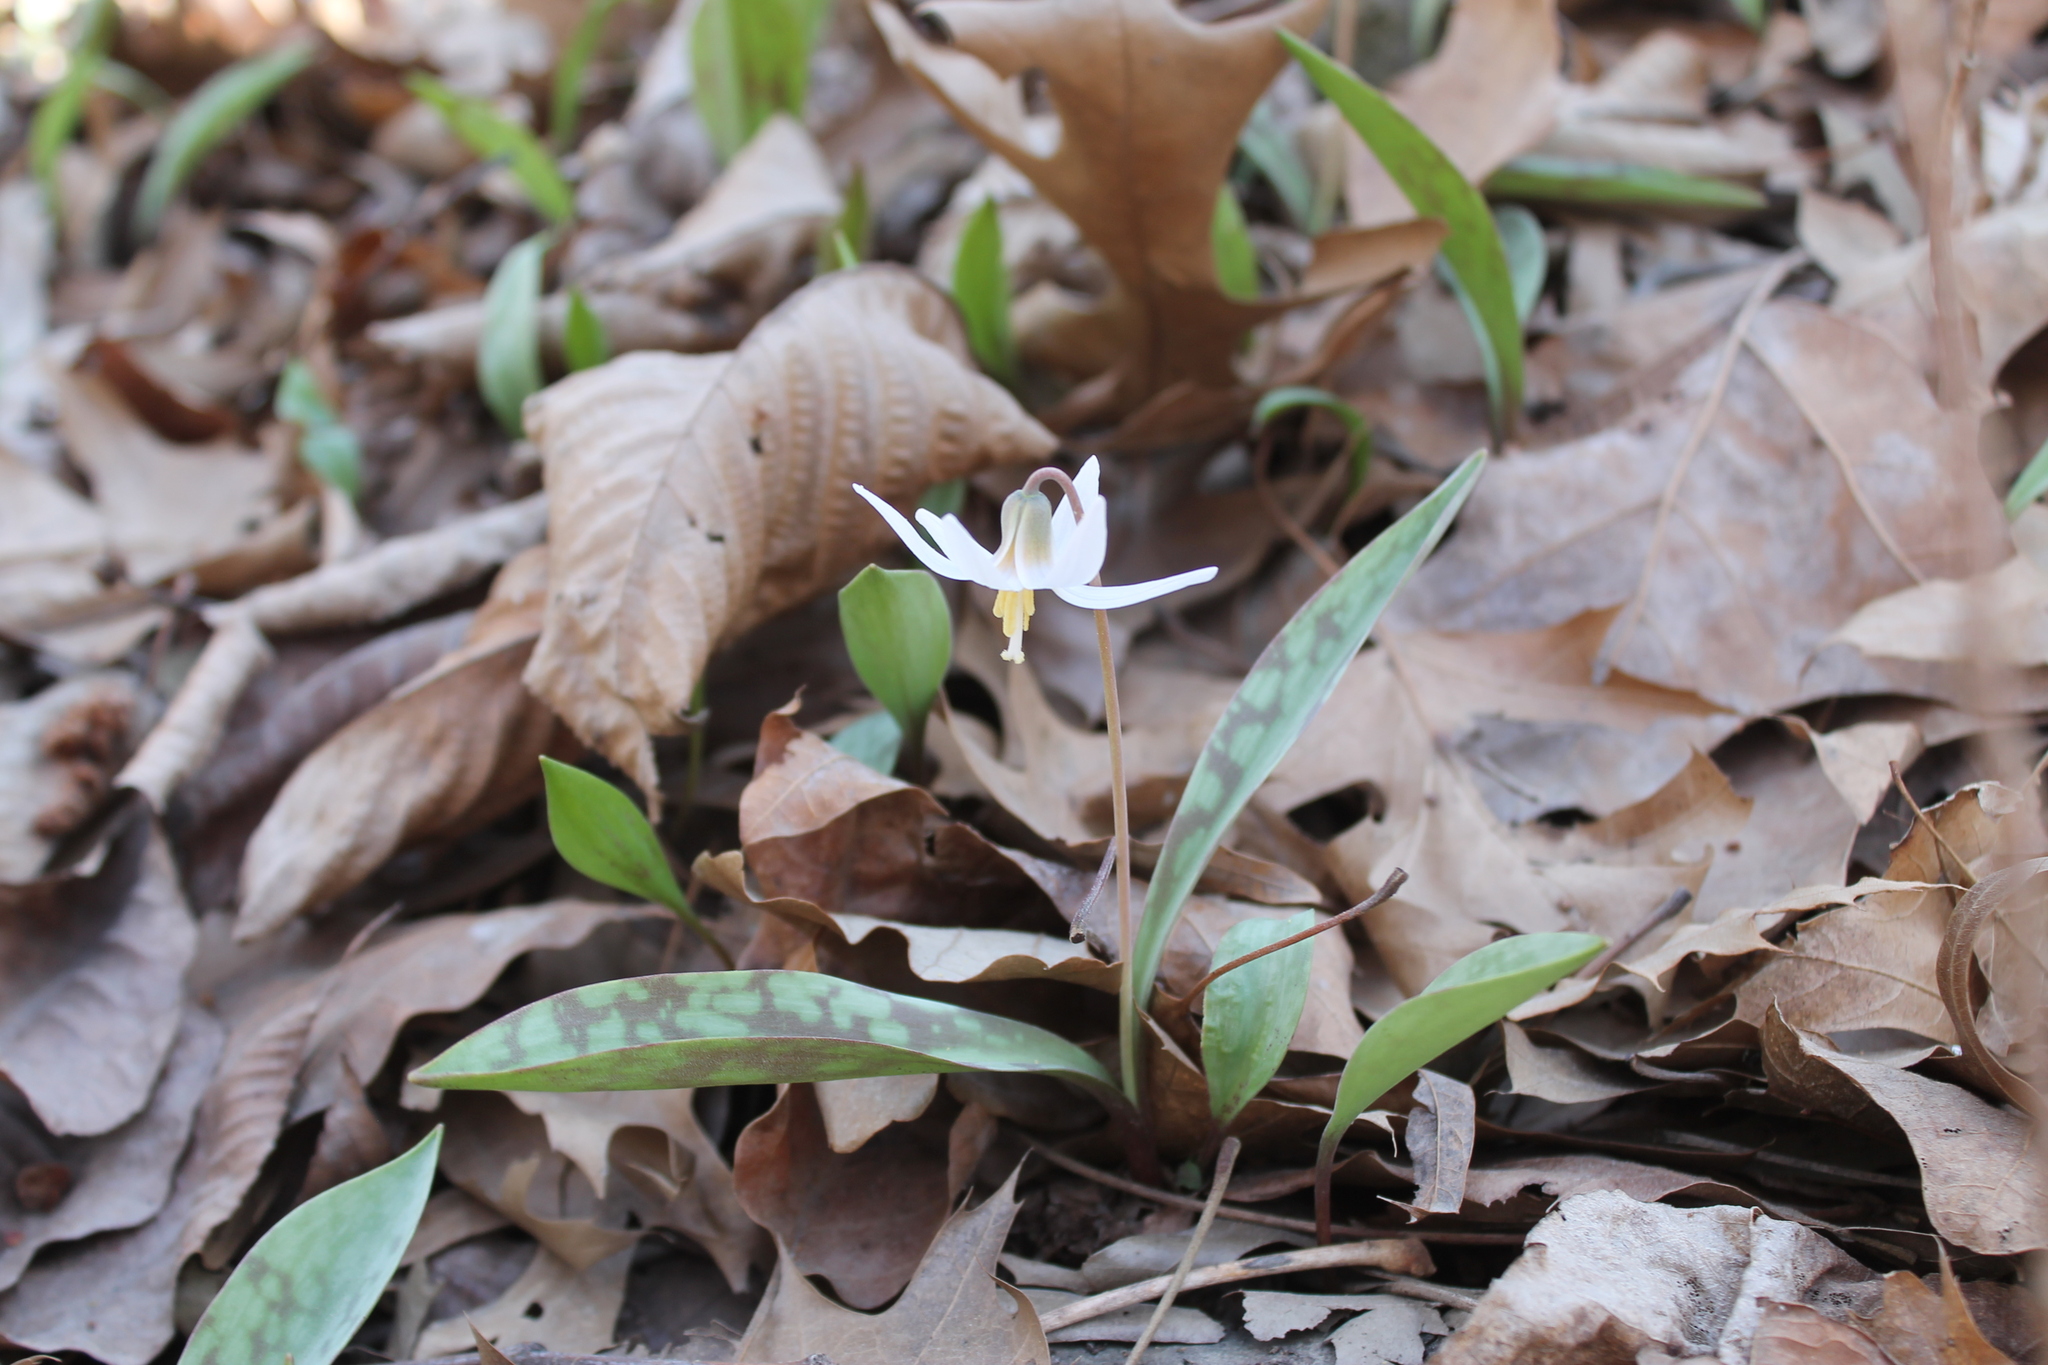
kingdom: Plantae
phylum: Tracheophyta
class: Liliopsida
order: Liliales
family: Liliaceae
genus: Erythronium
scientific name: Erythronium albidum
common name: White trout-lily
